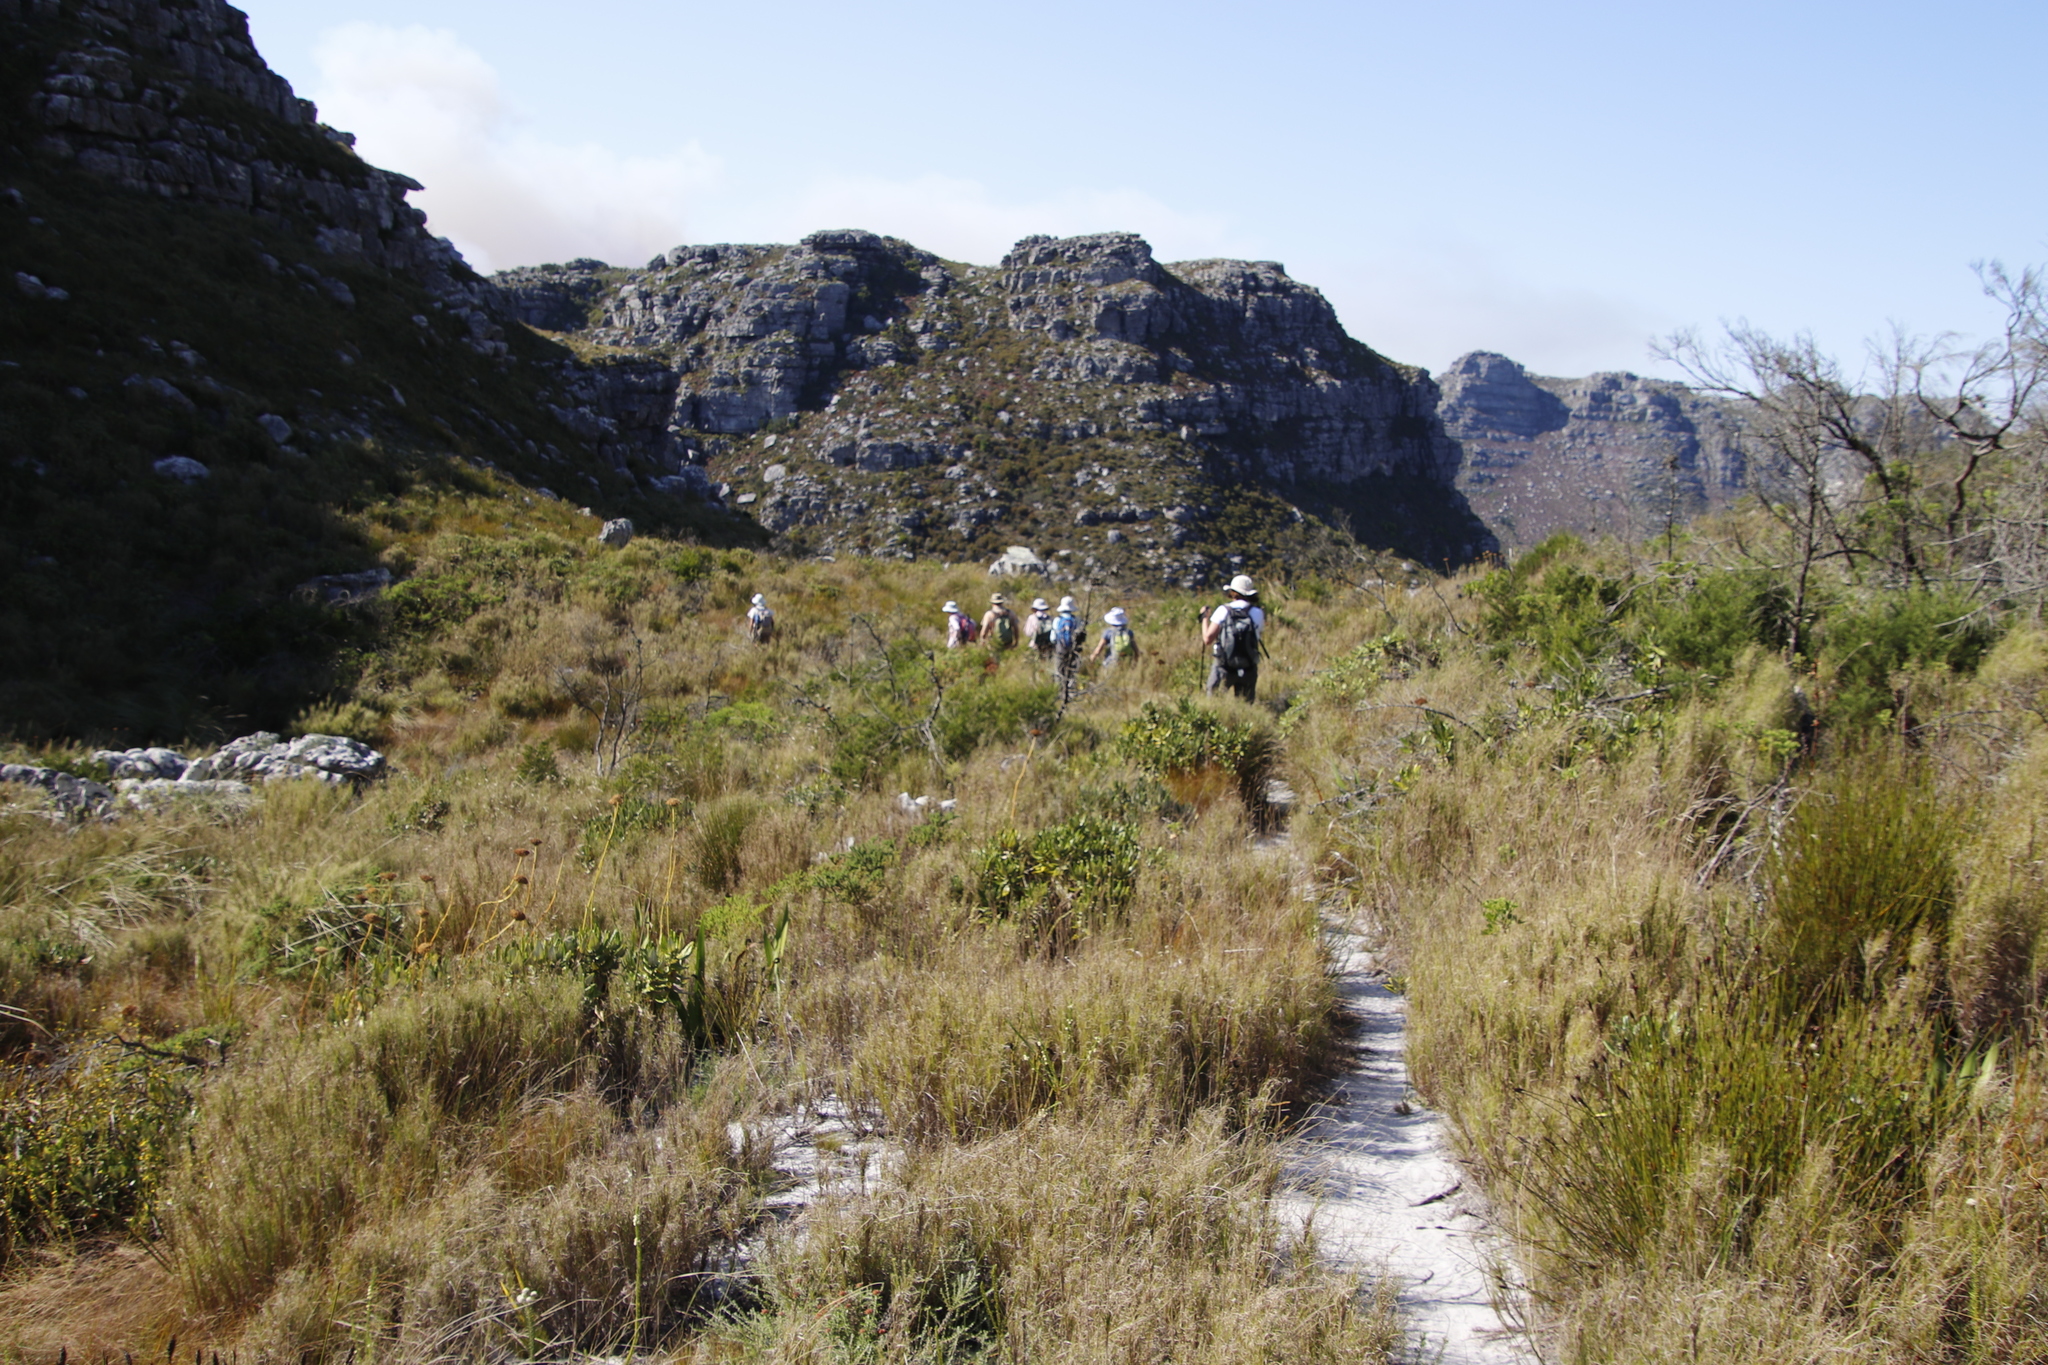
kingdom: Plantae
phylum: Tracheophyta
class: Magnoliopsida
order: Apiales
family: Apiaceae
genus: Hermas
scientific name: Hermas villosa
